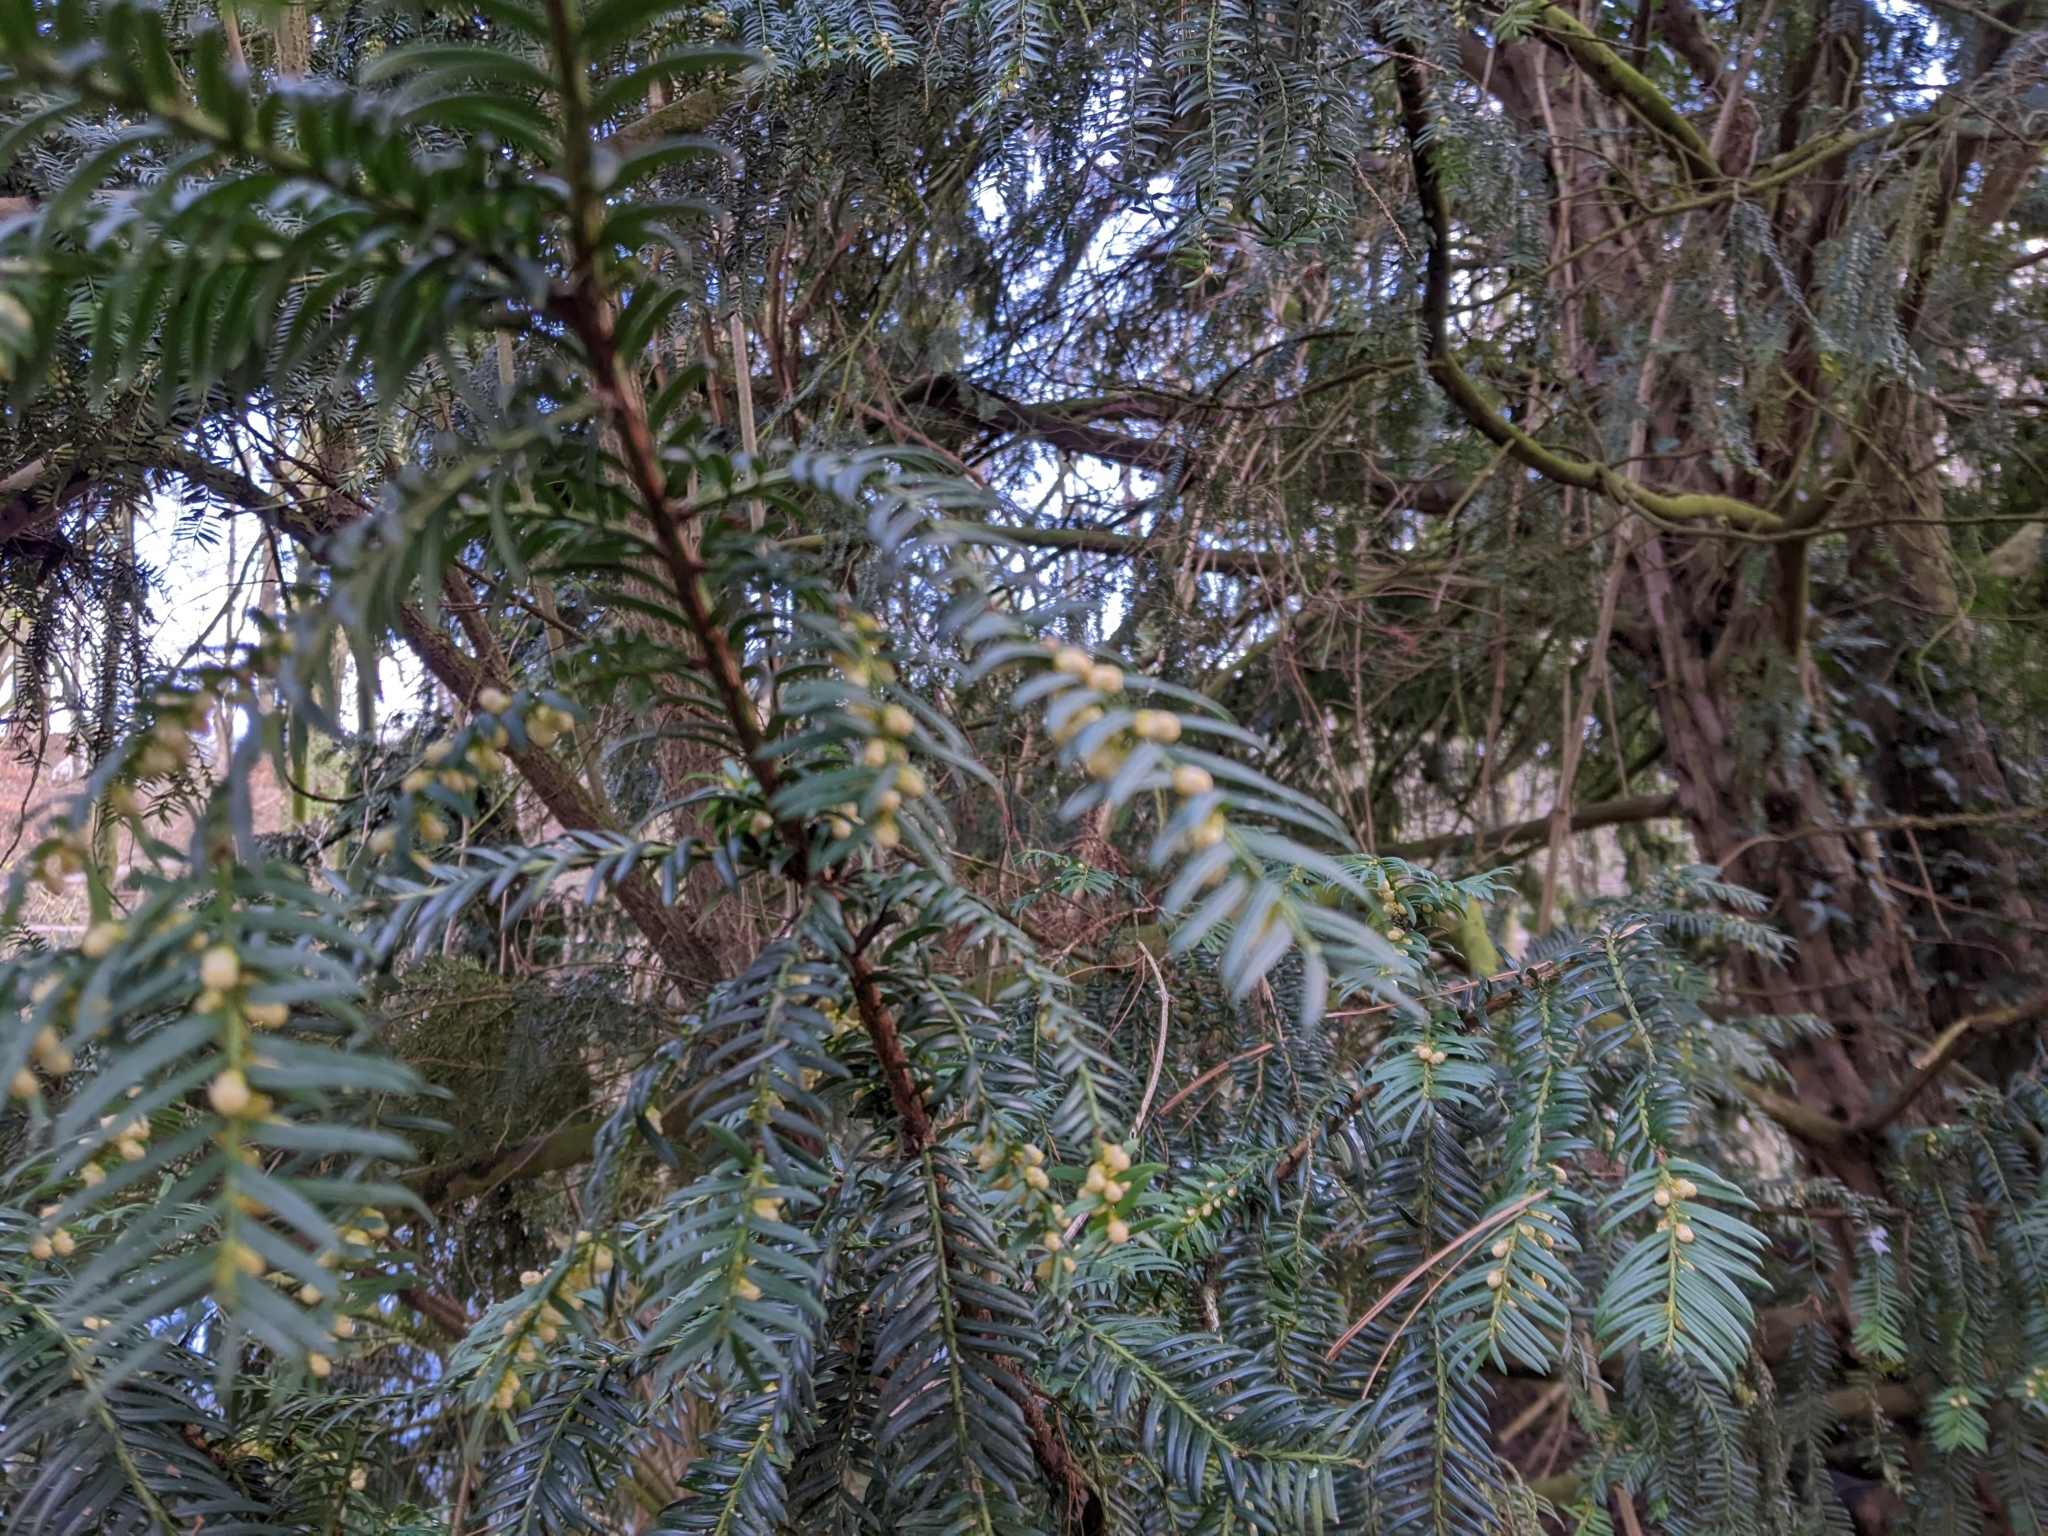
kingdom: Plantae
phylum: Tracheophyta
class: Pinopsida
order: Pinales
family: Taxaceae
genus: Taxus
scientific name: Taxus baccata
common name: Yew
